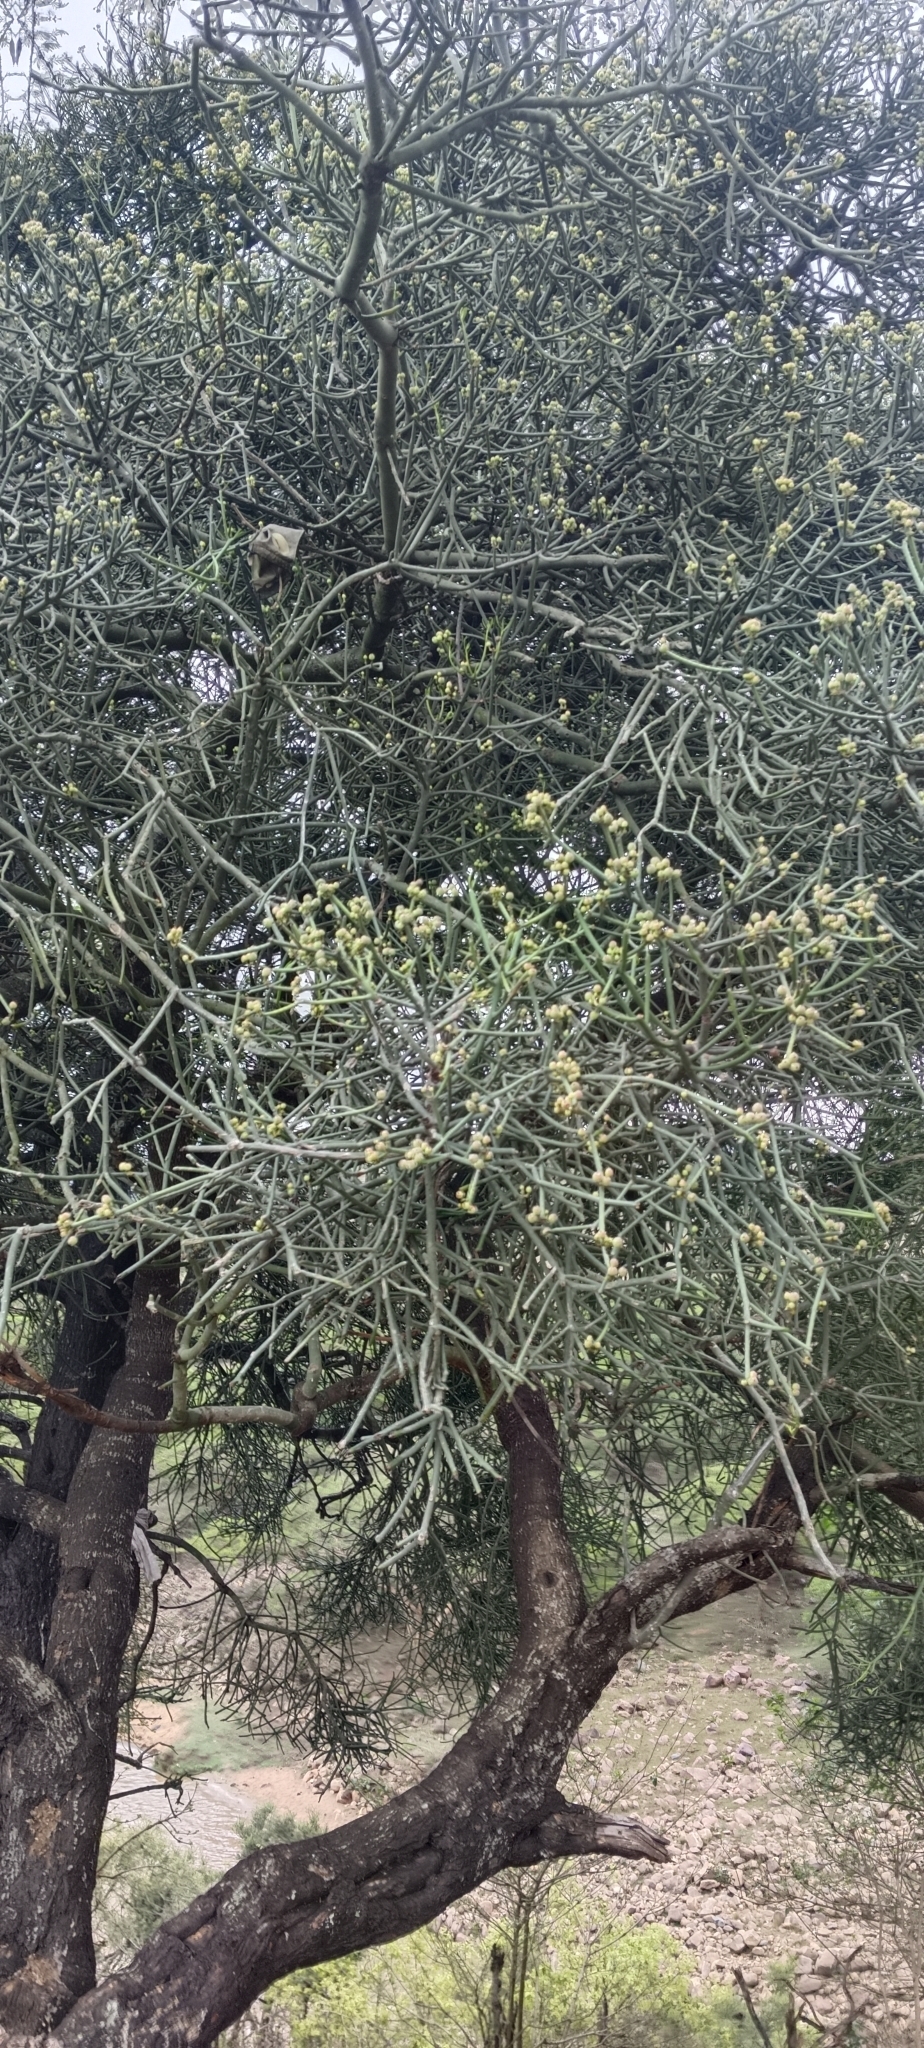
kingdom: Plantae
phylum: Tracheophyta
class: Magnoliopsida
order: Malpighiales
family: Euphorbiaceae
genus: Euphorbia
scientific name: Euphorbia tirucalli
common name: Indiantree spurge
